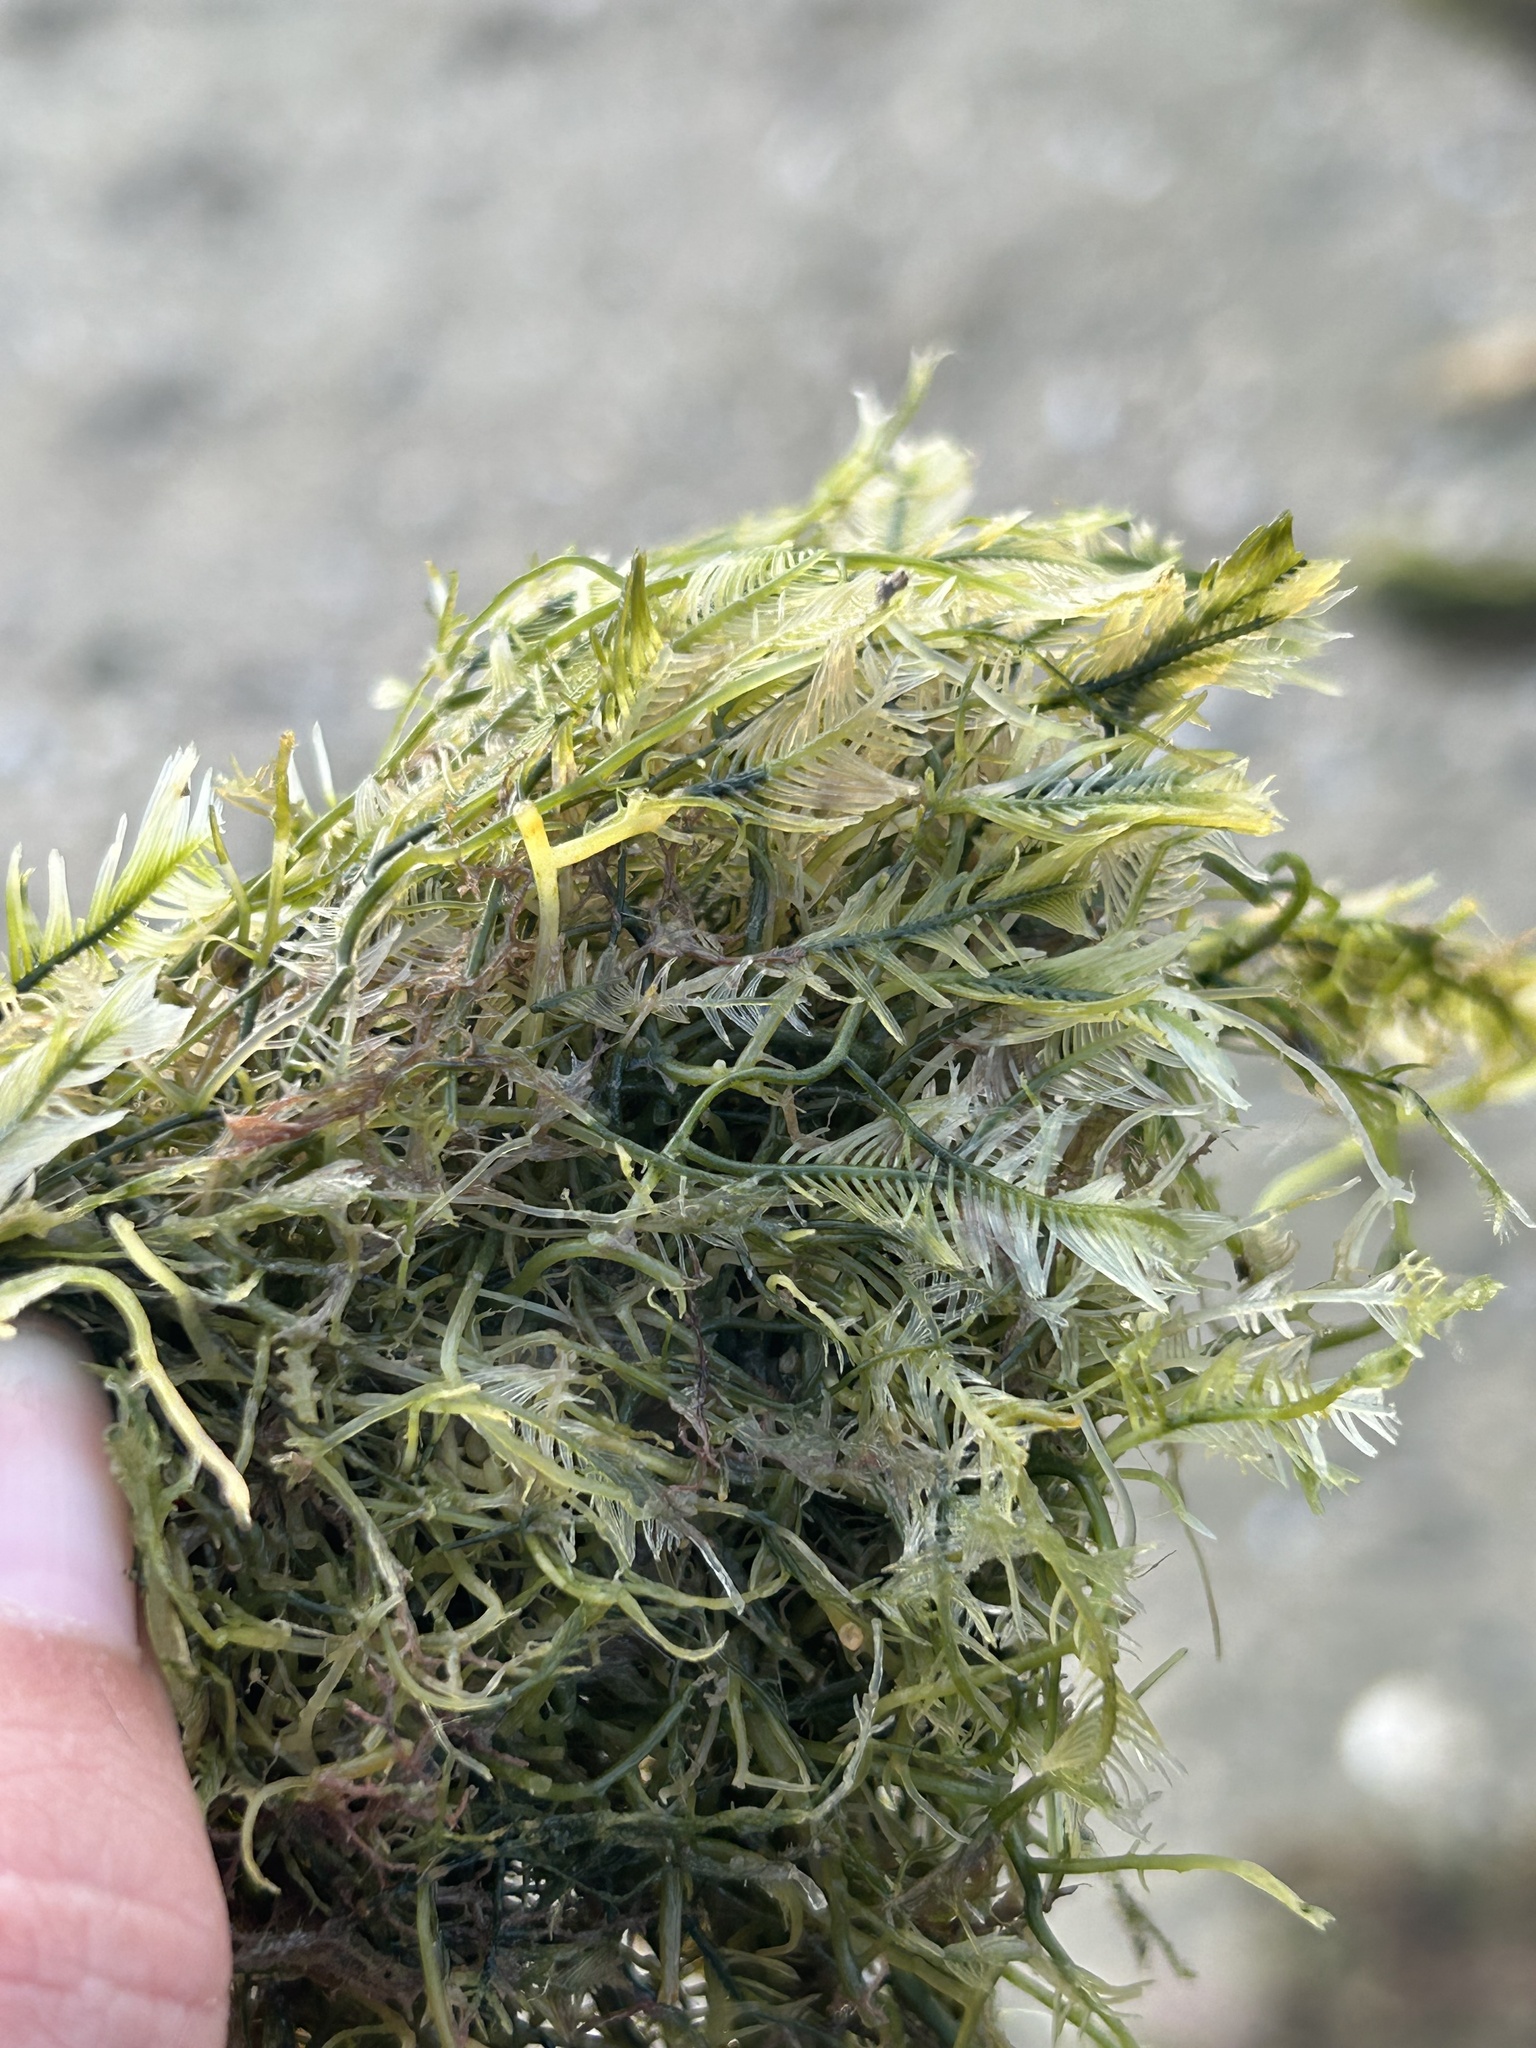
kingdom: Plantae
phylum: Chlorophyta
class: Ulvophyceae
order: Bryopsidales
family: Caulerpaceae
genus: Caulerpa
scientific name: Caulerpa sertularioides
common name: Green feather algae
